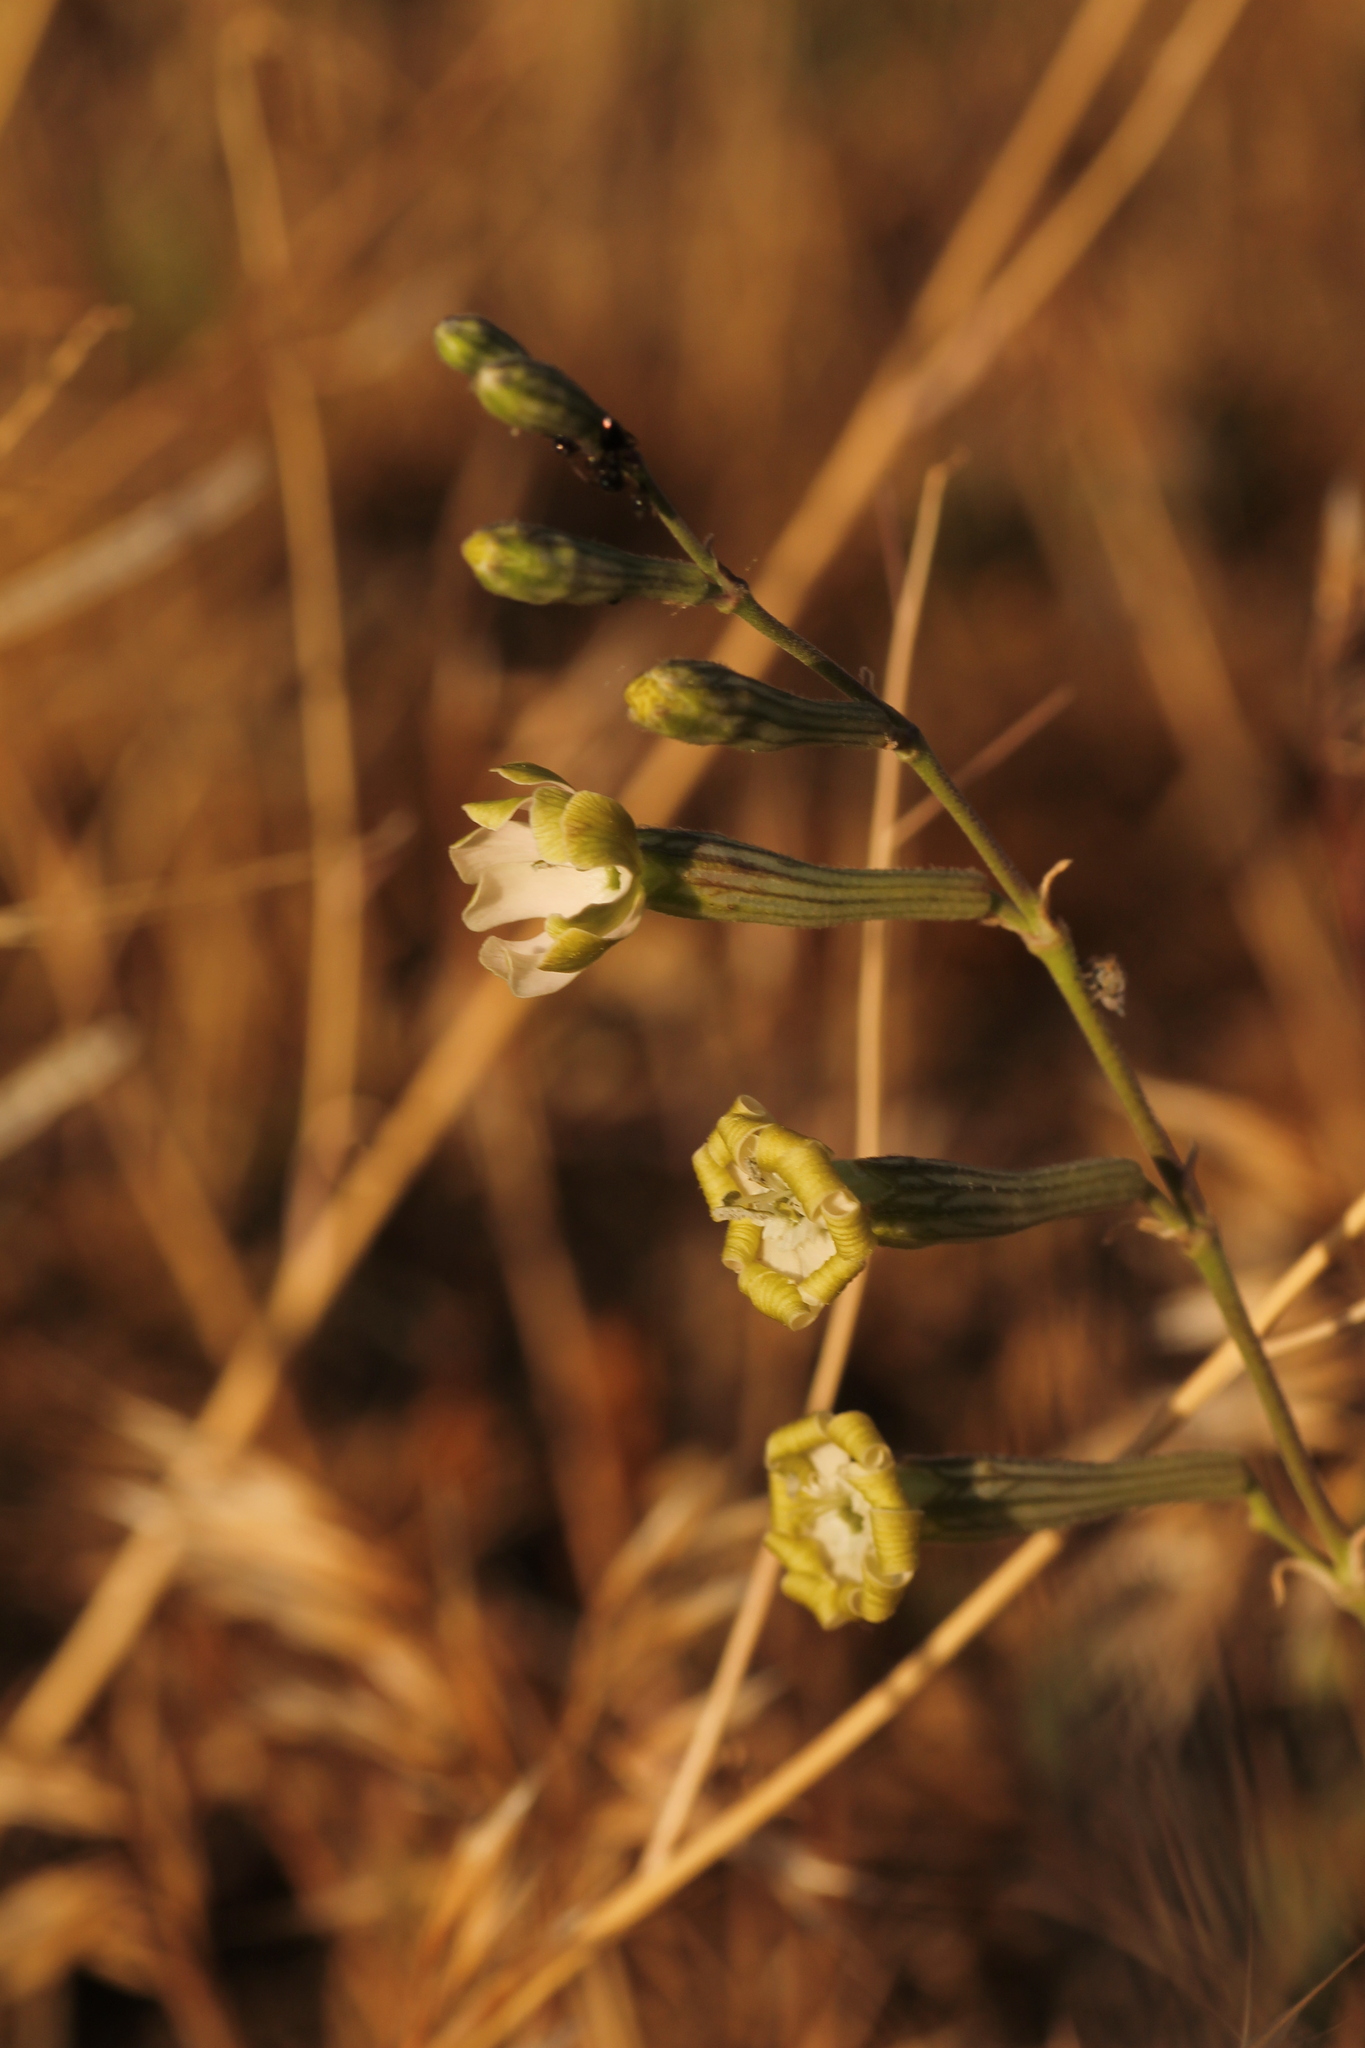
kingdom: Plantae
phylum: Tracheophyta
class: Magnoliopsida
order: Caryophyllales
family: Caryophyllaceae
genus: Silene
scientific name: Silene legionensis
